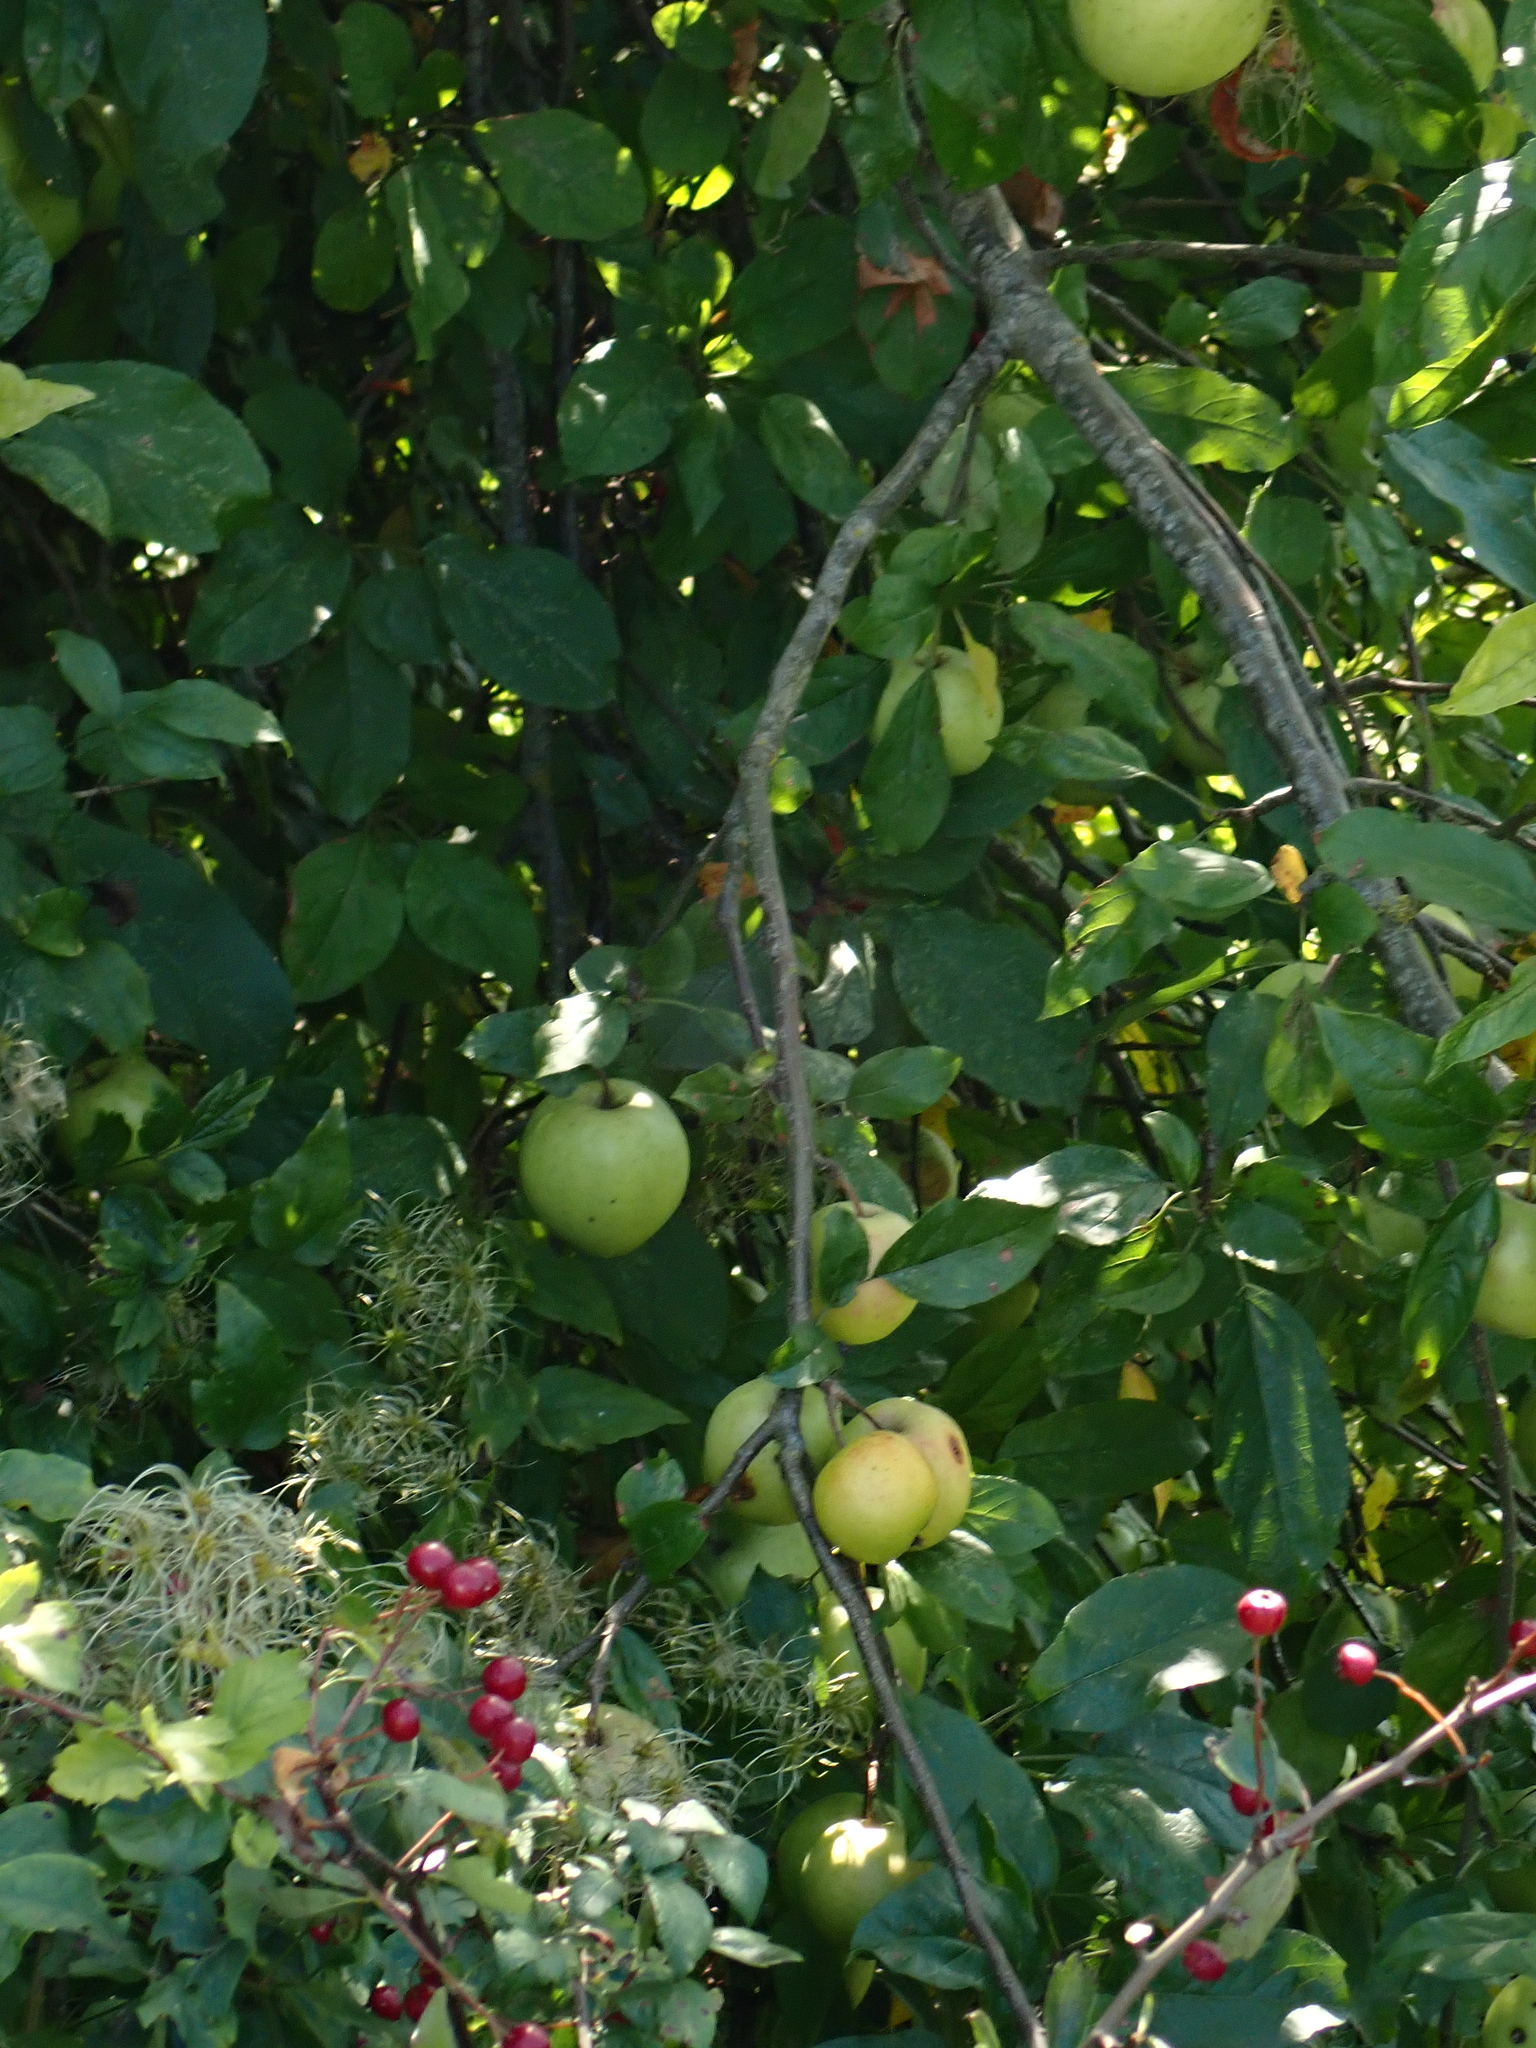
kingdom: Plantae
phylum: Tracheophyta
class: Magnoliopsida
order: Rosales
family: Rosaceae
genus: Malus
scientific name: Malus domestica
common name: Apple
